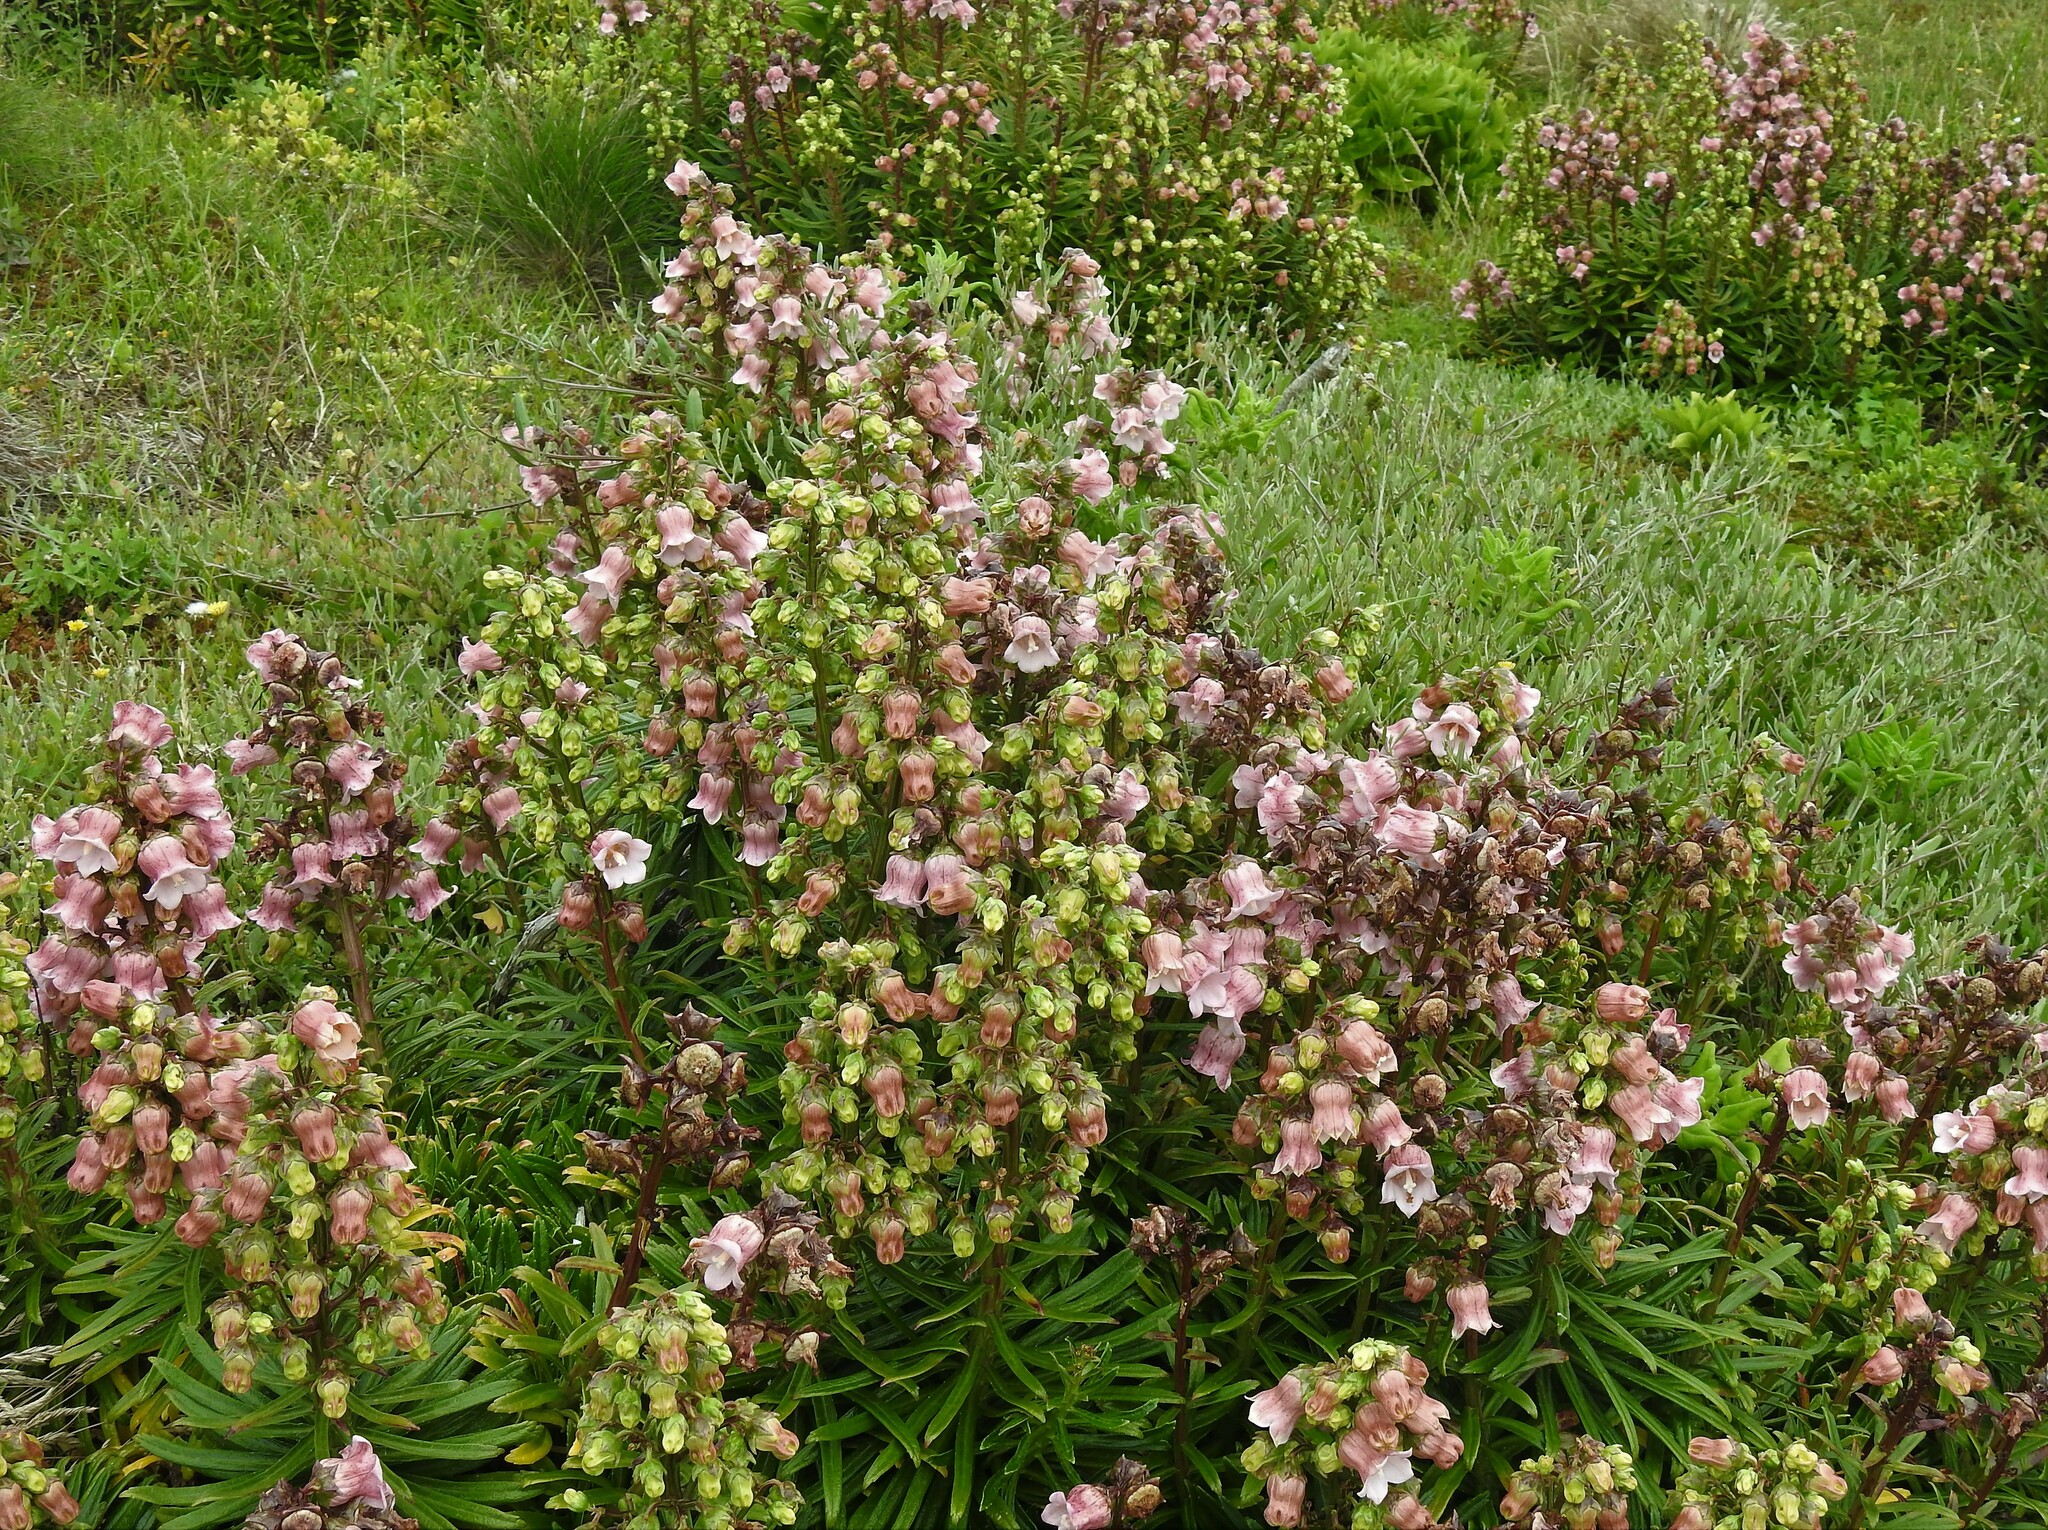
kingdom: Plantae
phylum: Tracheophyta
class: Magnoliopsida
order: Asterales
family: Campanulaceae
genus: Campanula
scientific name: Campanula vidalii
